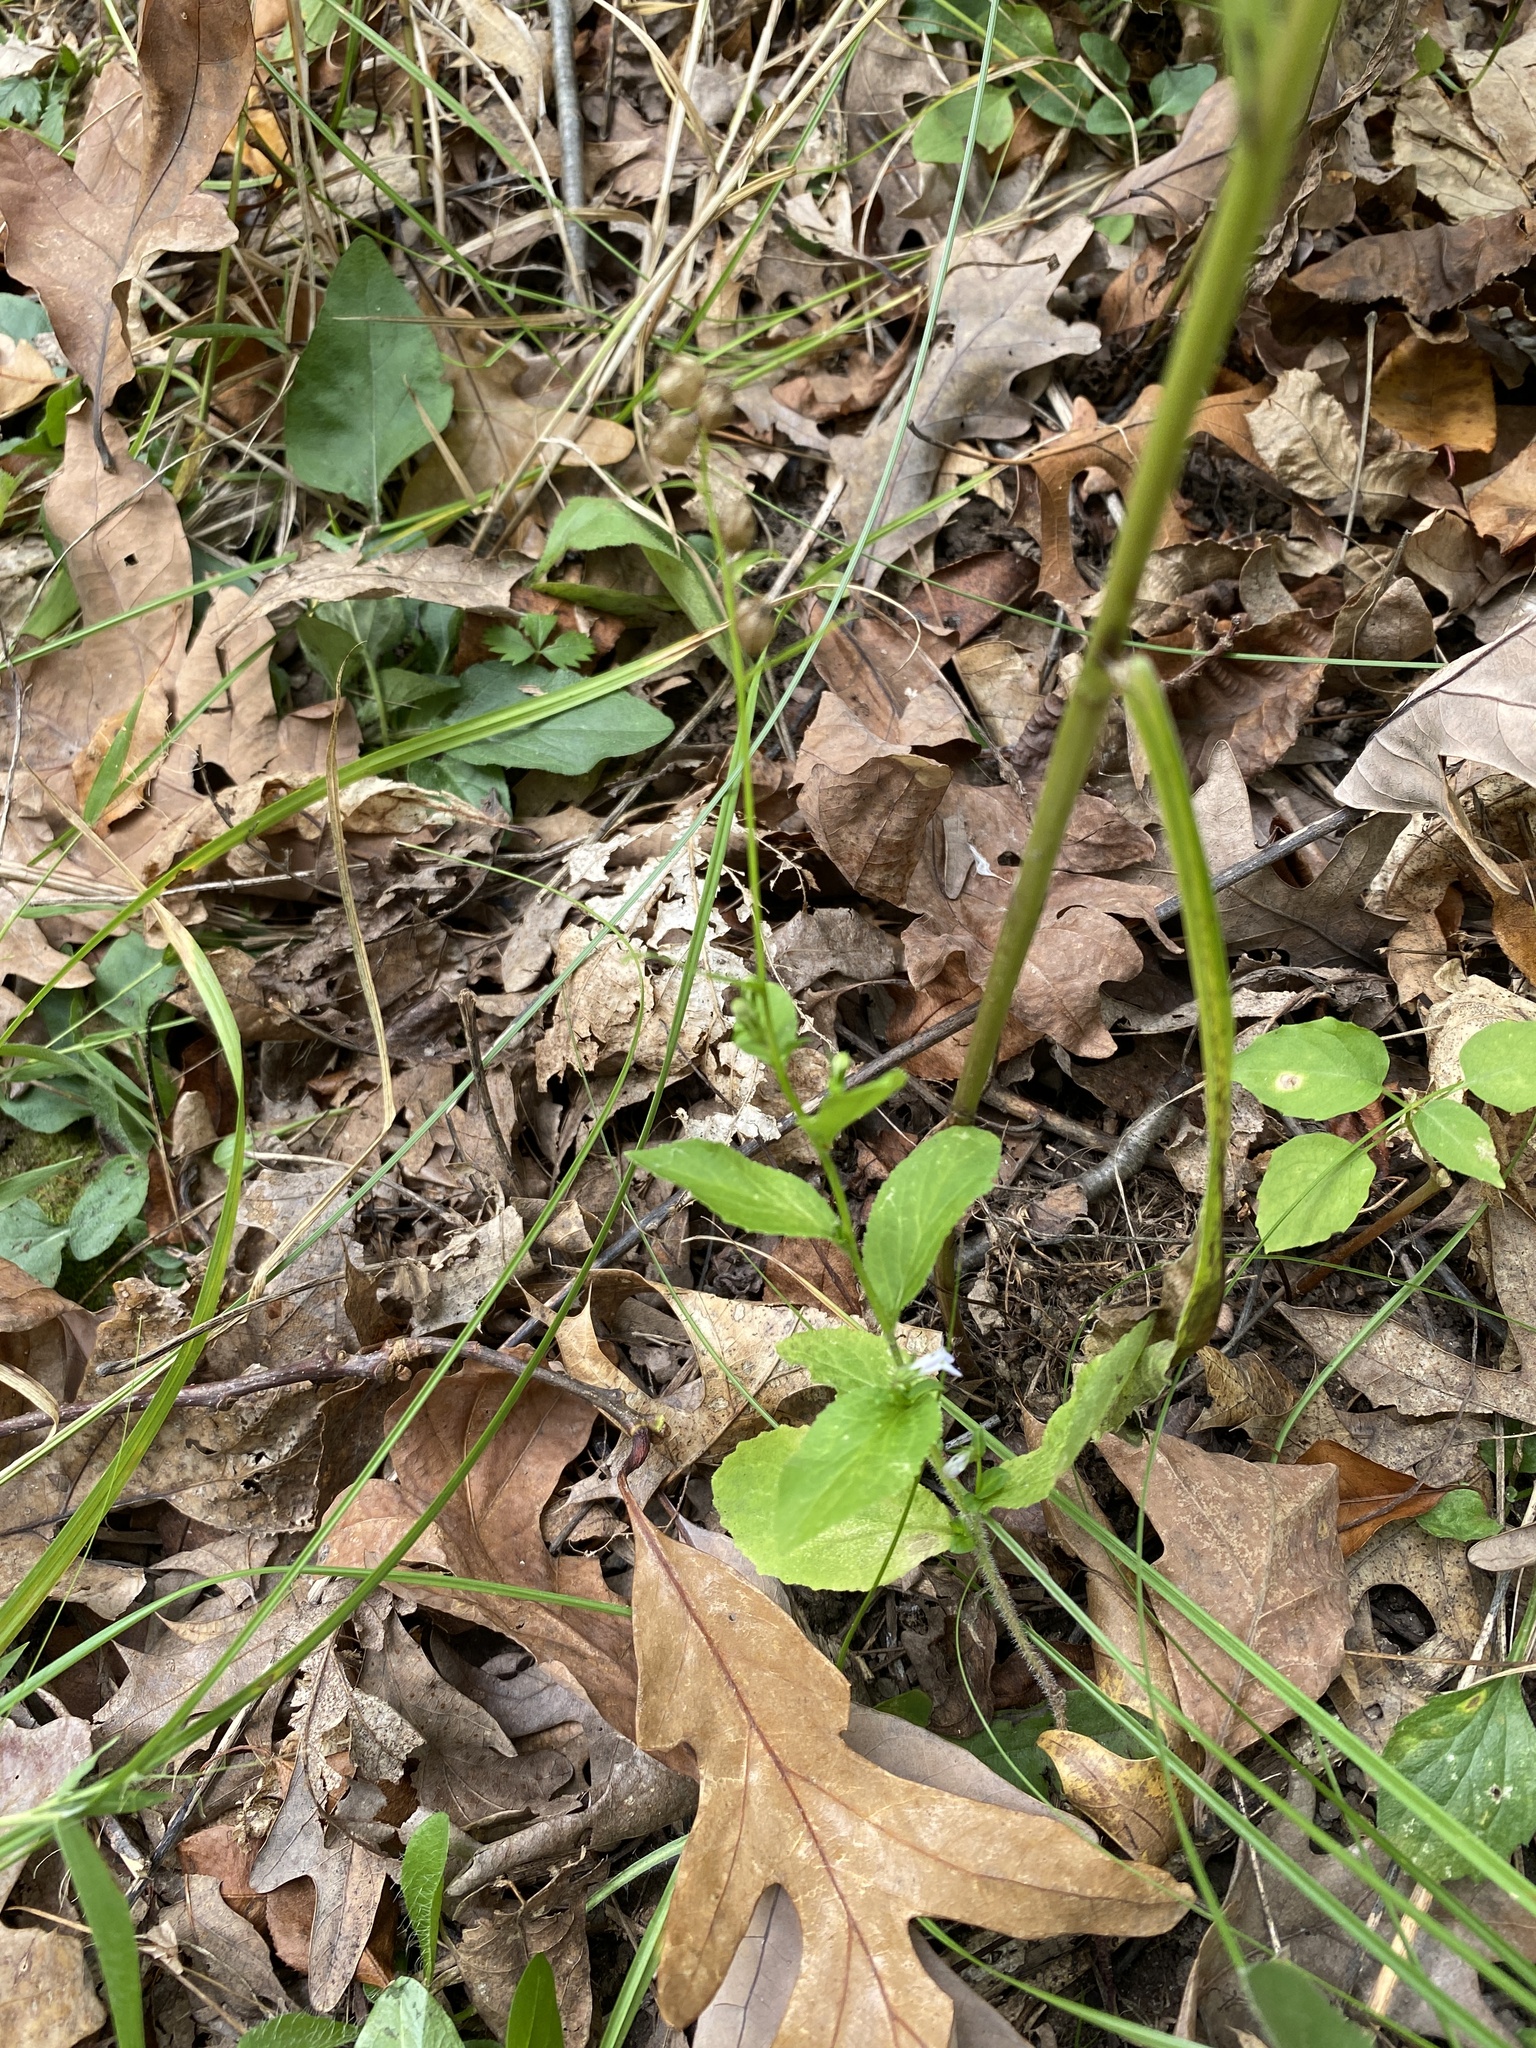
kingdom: Plantae
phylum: Tracheophyta
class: Magnoliopsida
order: Asterales
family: Campanulaceae
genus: Lobelia
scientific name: Lobelia inflata
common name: Indian tobacco
